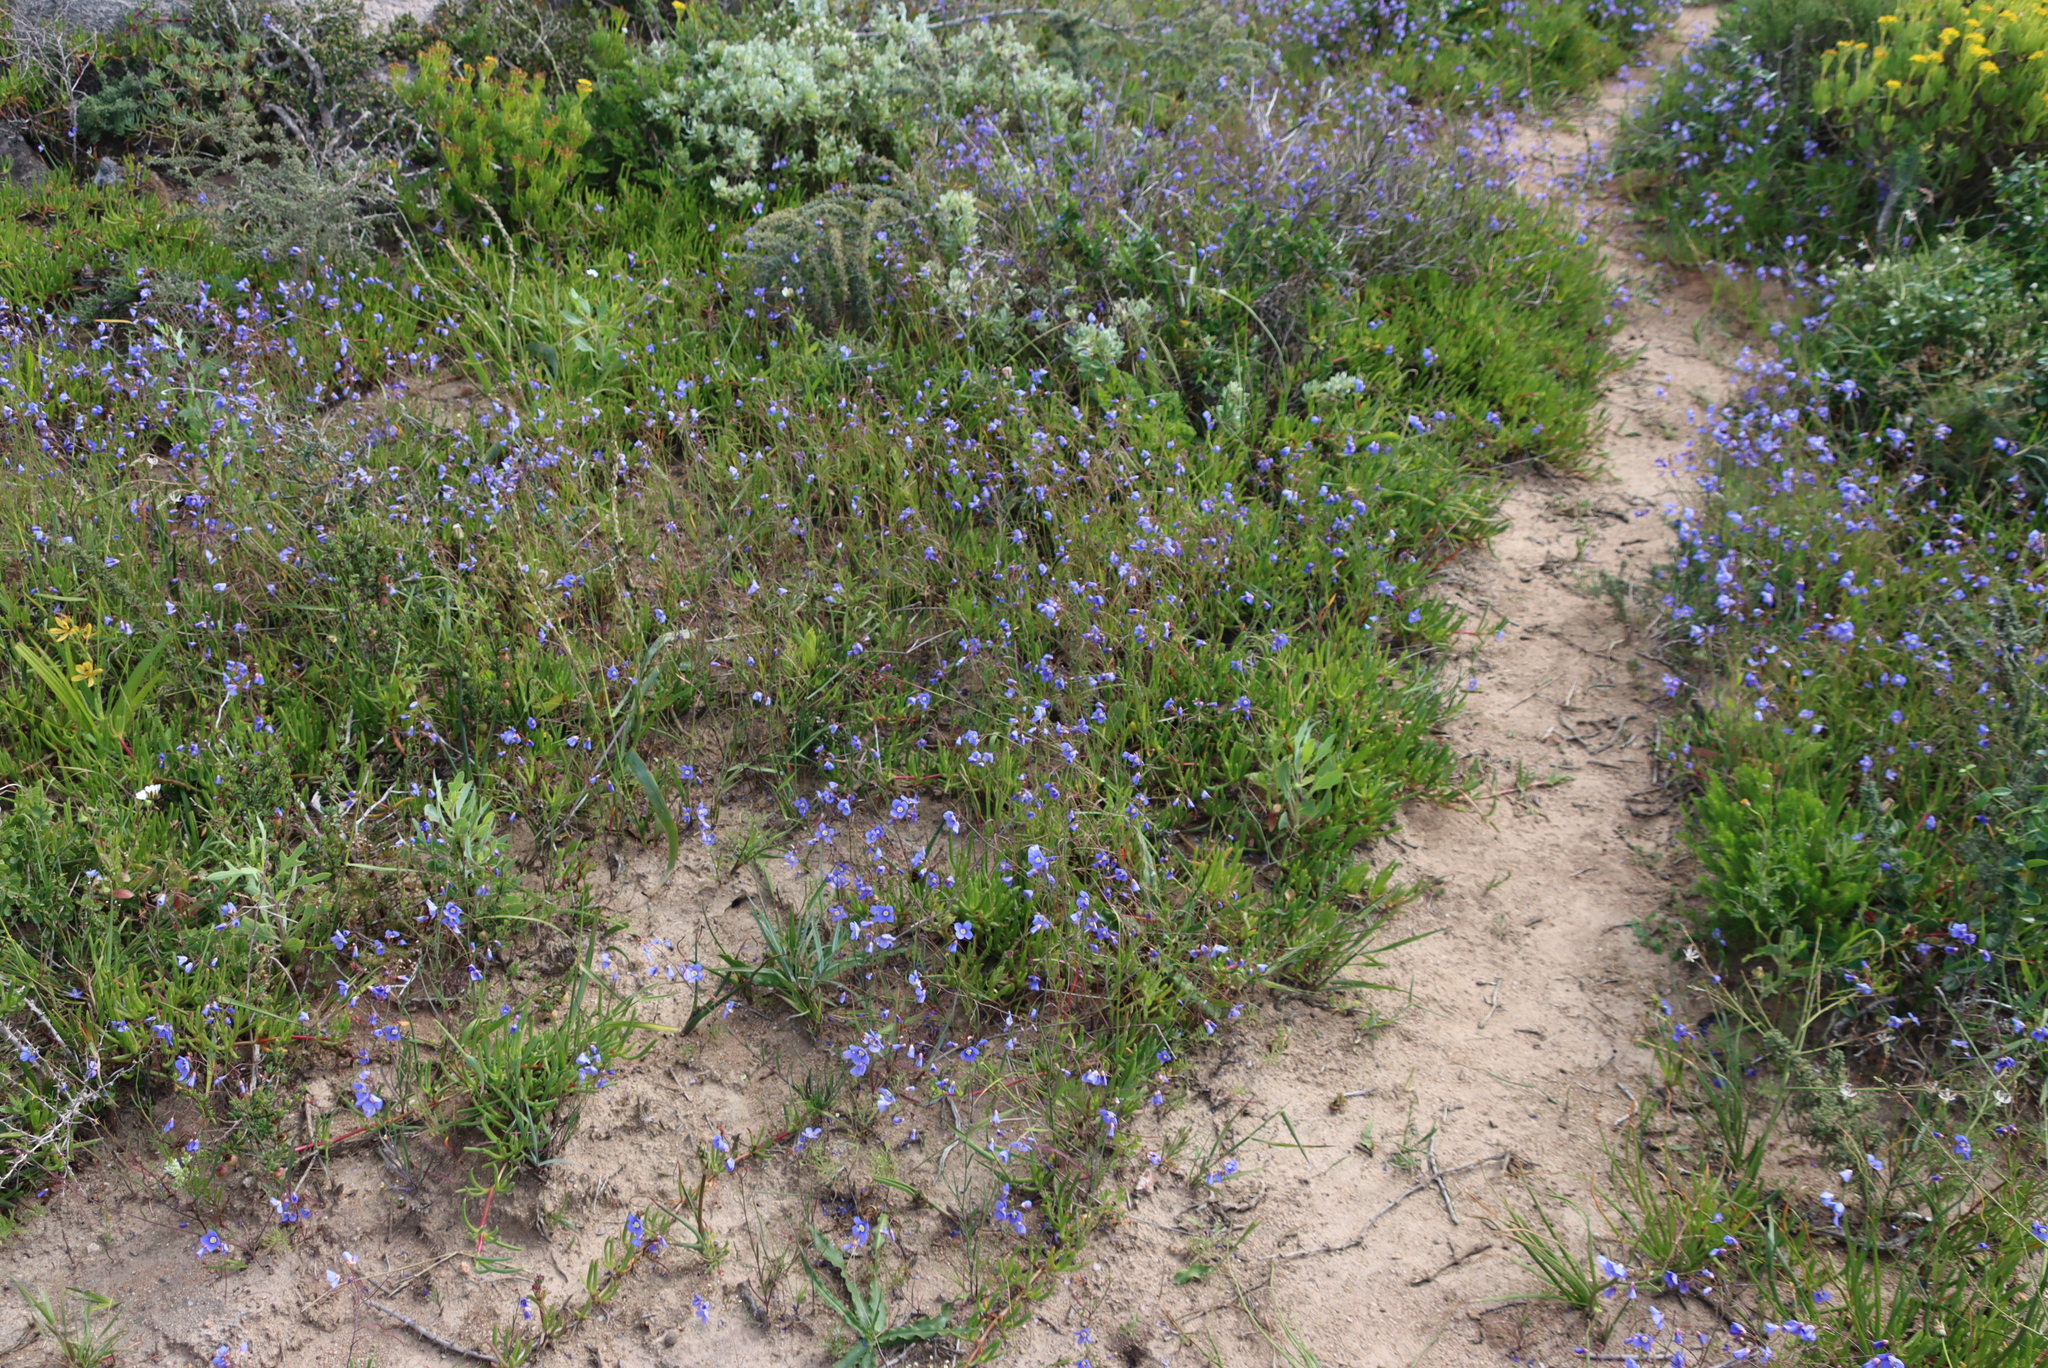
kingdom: Plantae
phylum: Tracheophyta
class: Magnoliopsida
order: Brassicales
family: Brassicaceae
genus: Heliophila
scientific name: Heliophila coronopifolia
